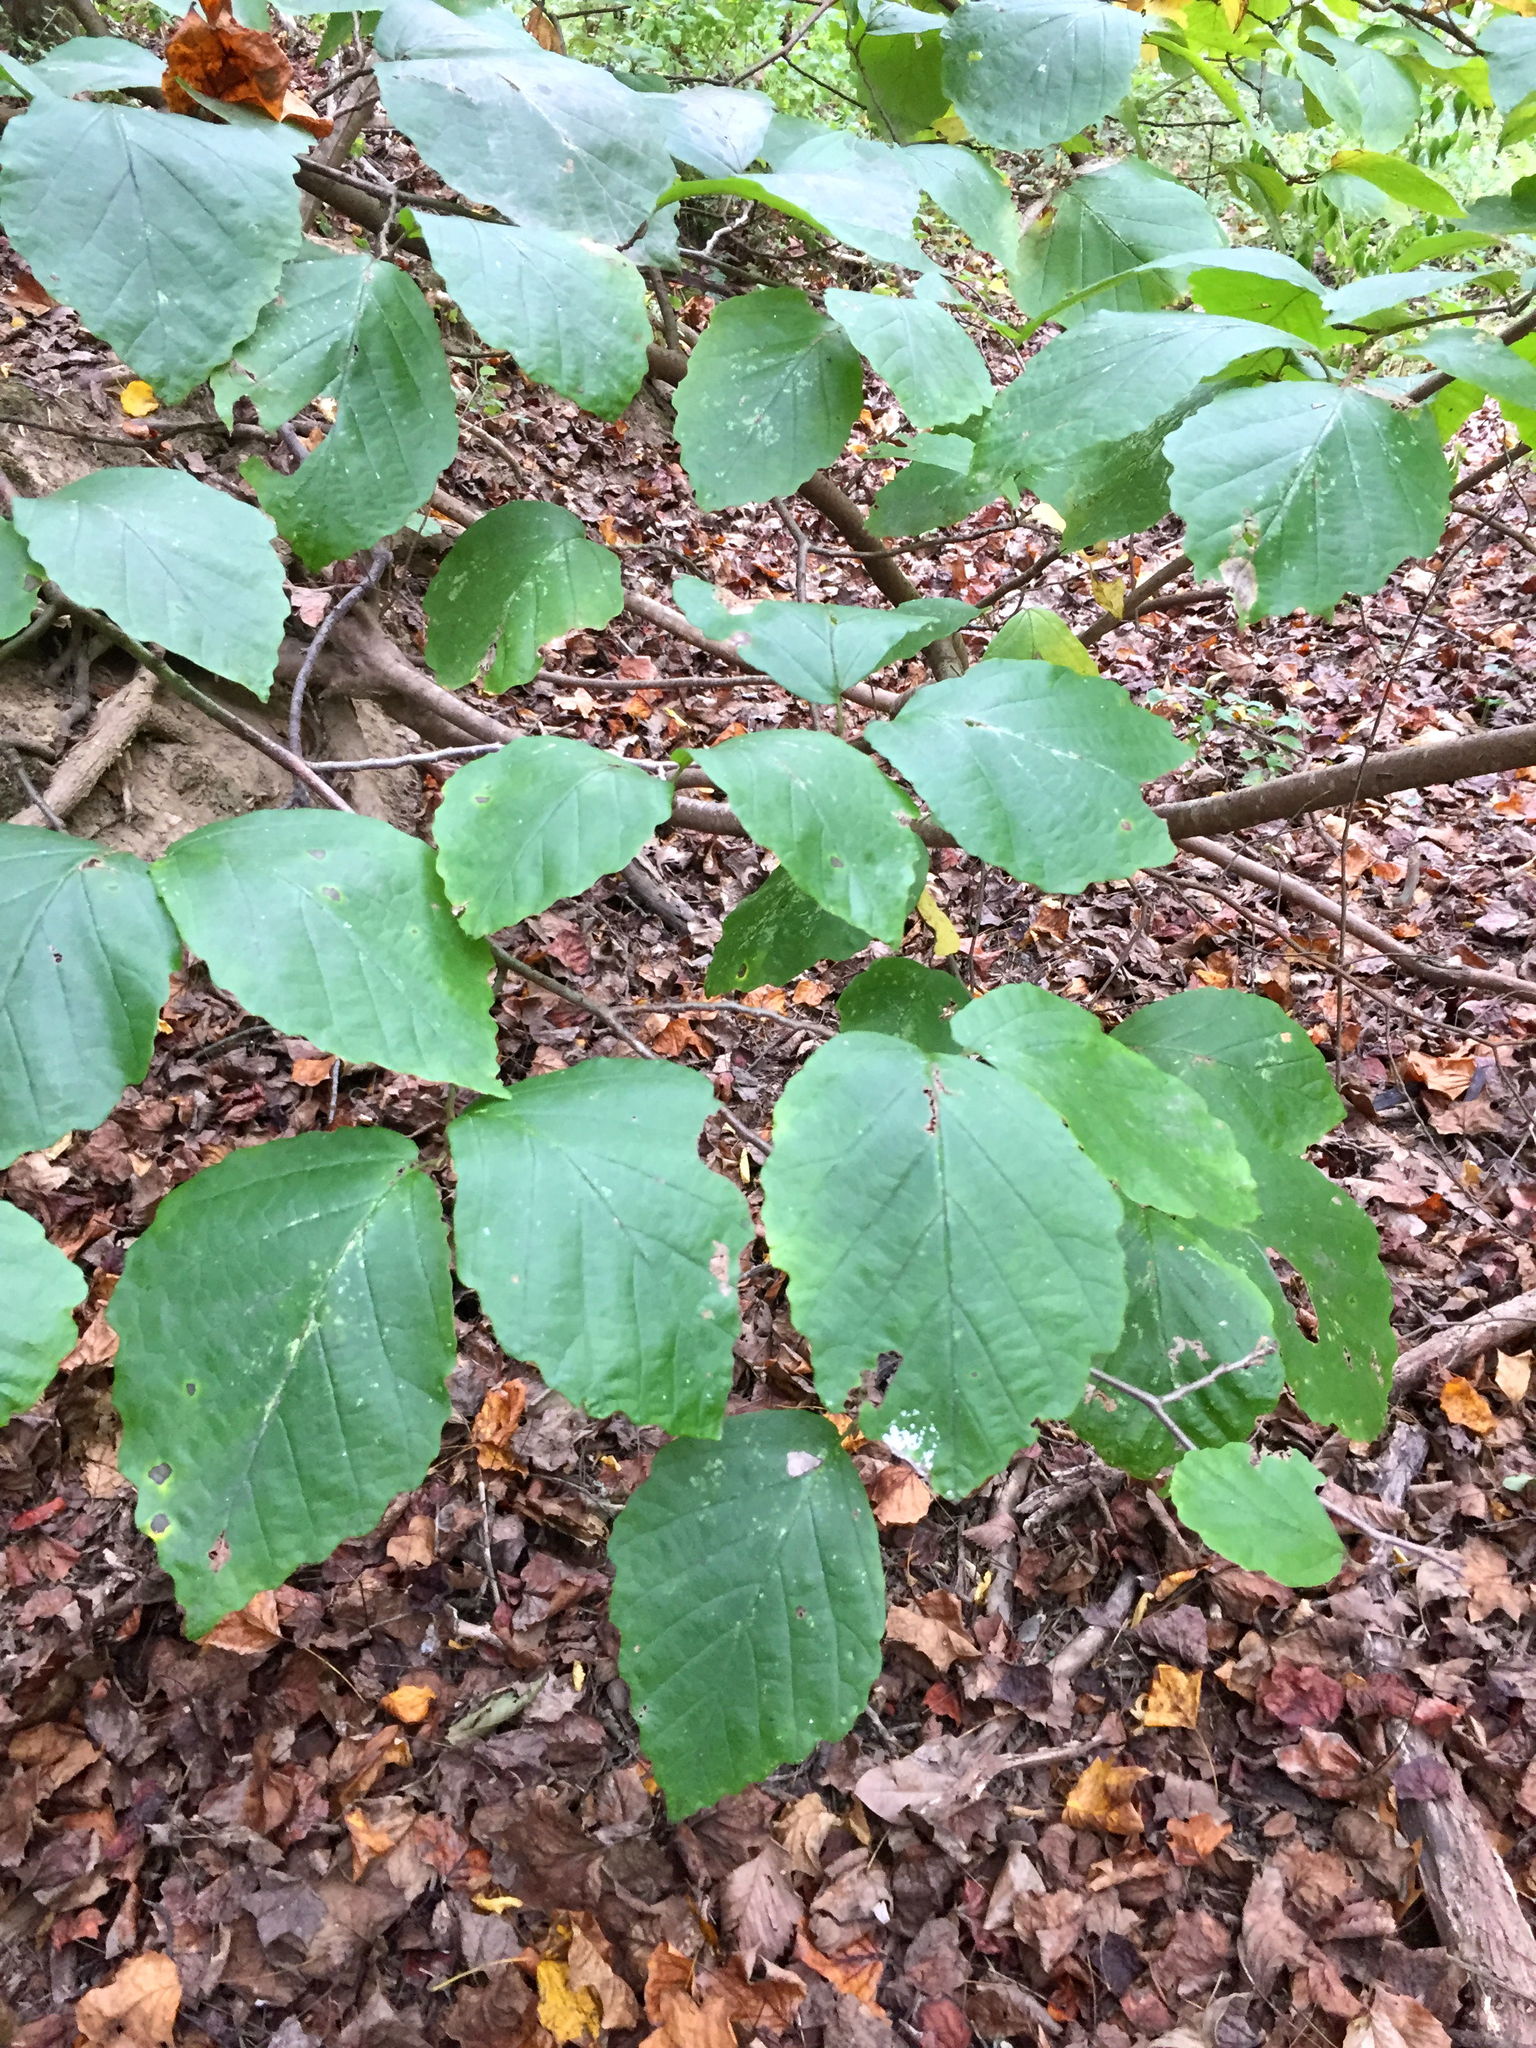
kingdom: Plantae
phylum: Tracheophyta
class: Magnoliopsida
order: Saxifragales
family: Hamamelidaceae
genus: Hamamelis
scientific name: Hamamelis virginiana
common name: Witch-hazel
